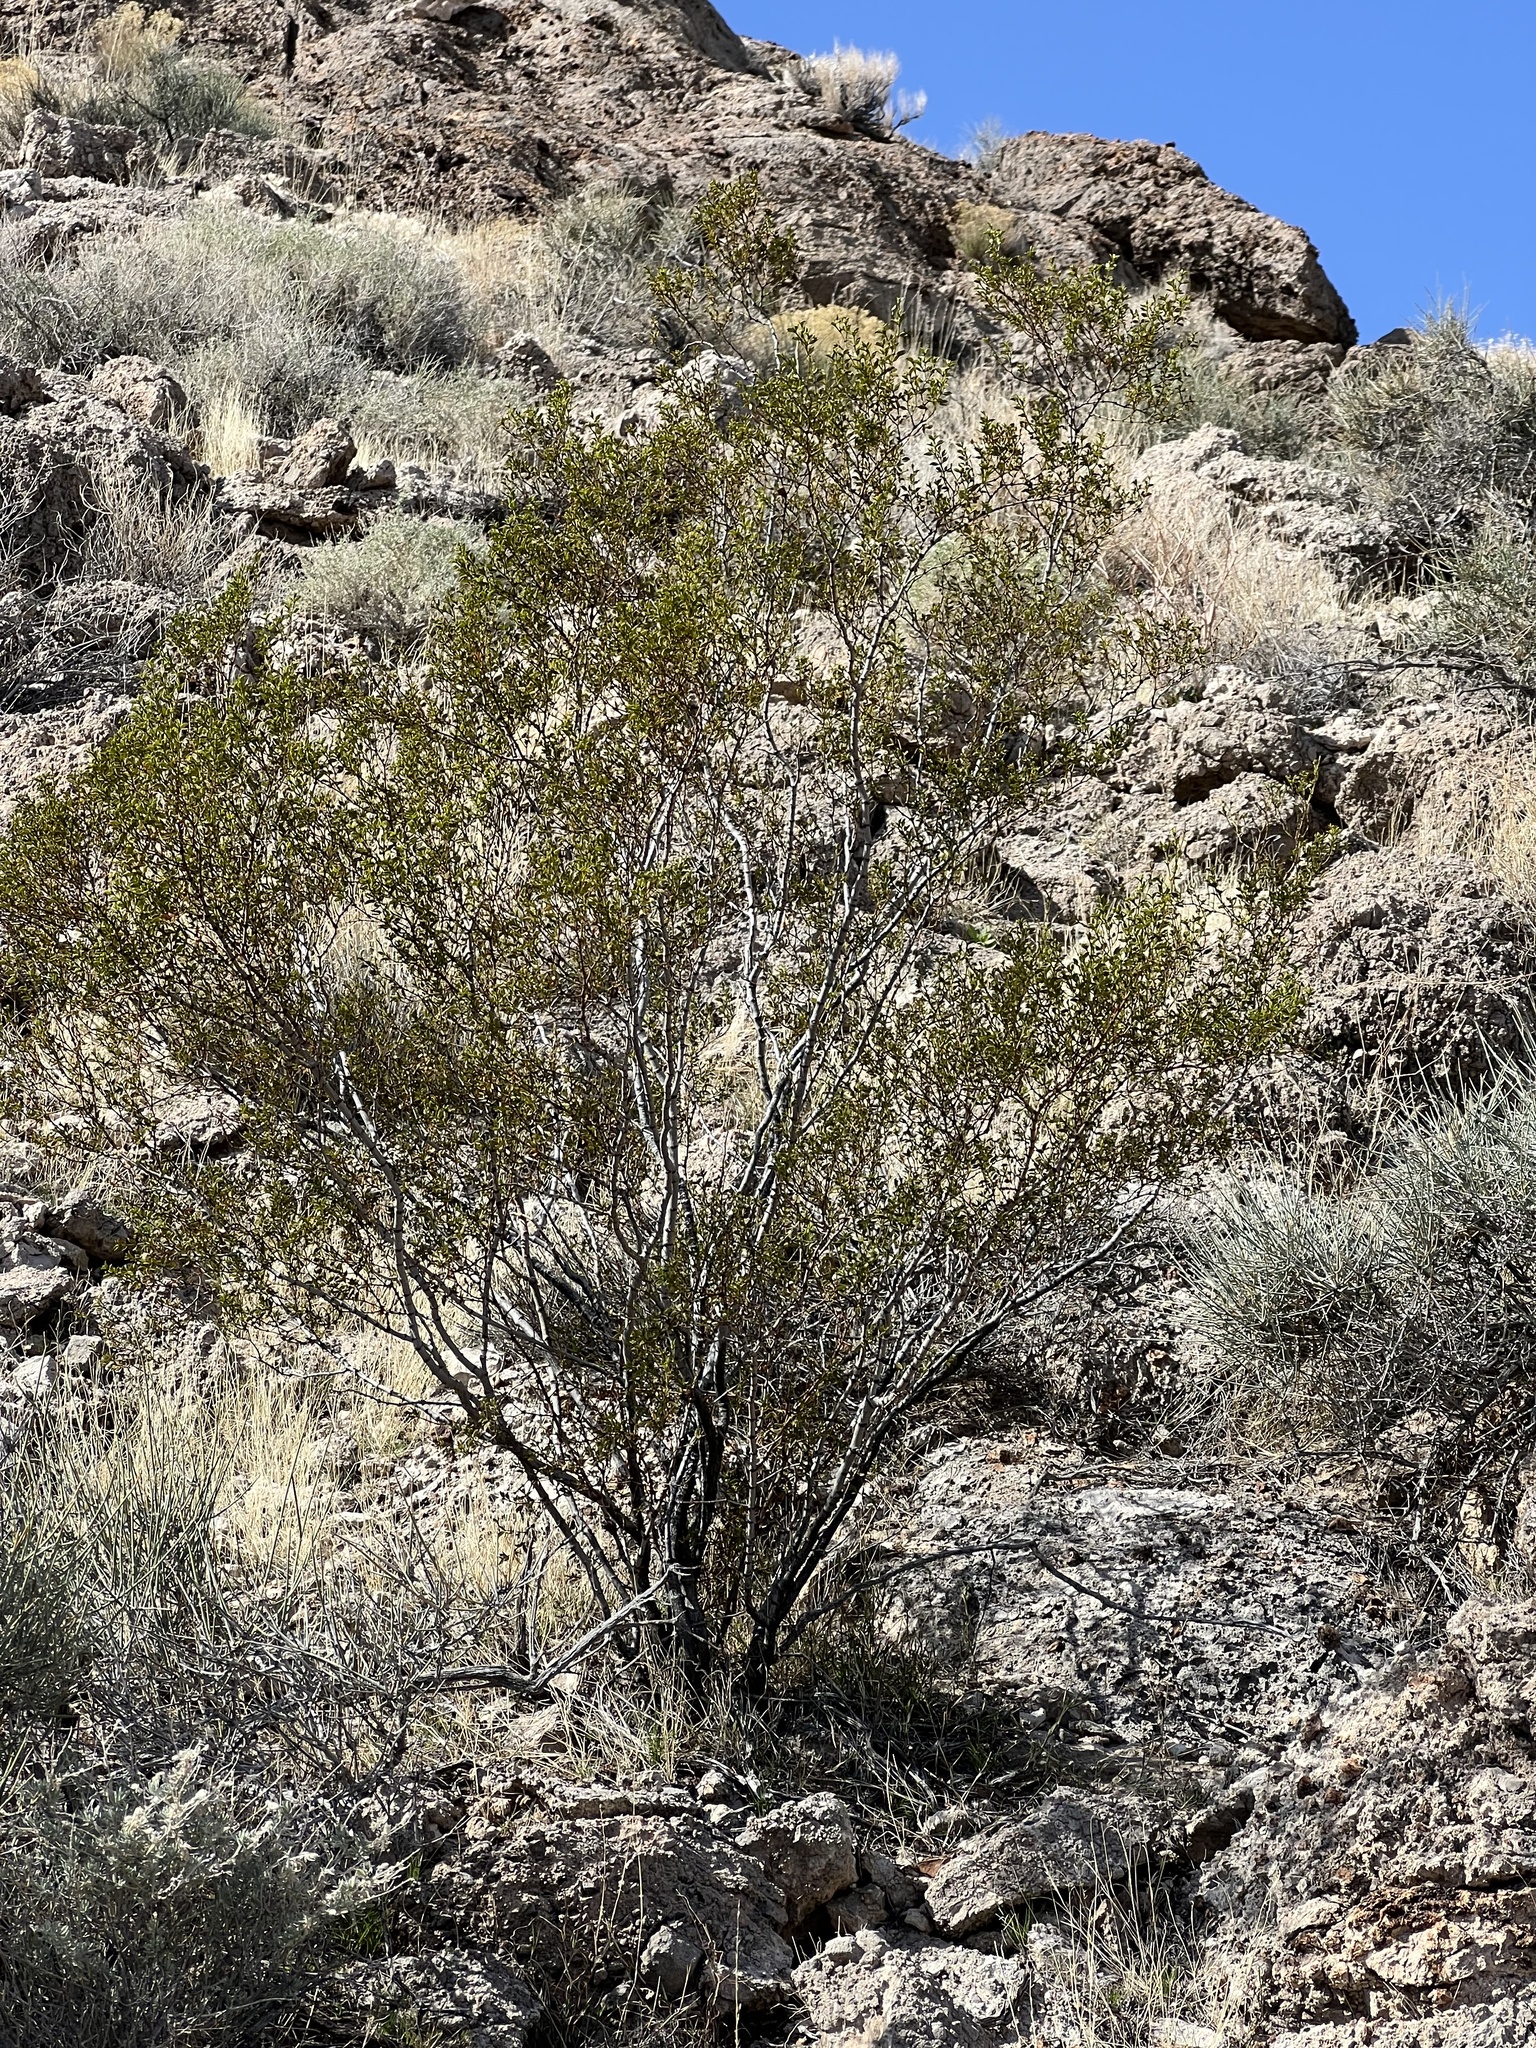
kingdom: Plantae
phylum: Tracheophyta
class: Magnoliopsida
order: Zygophyllales
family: Zygophyllaceae
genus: Larrea
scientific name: Larrea tridentata
